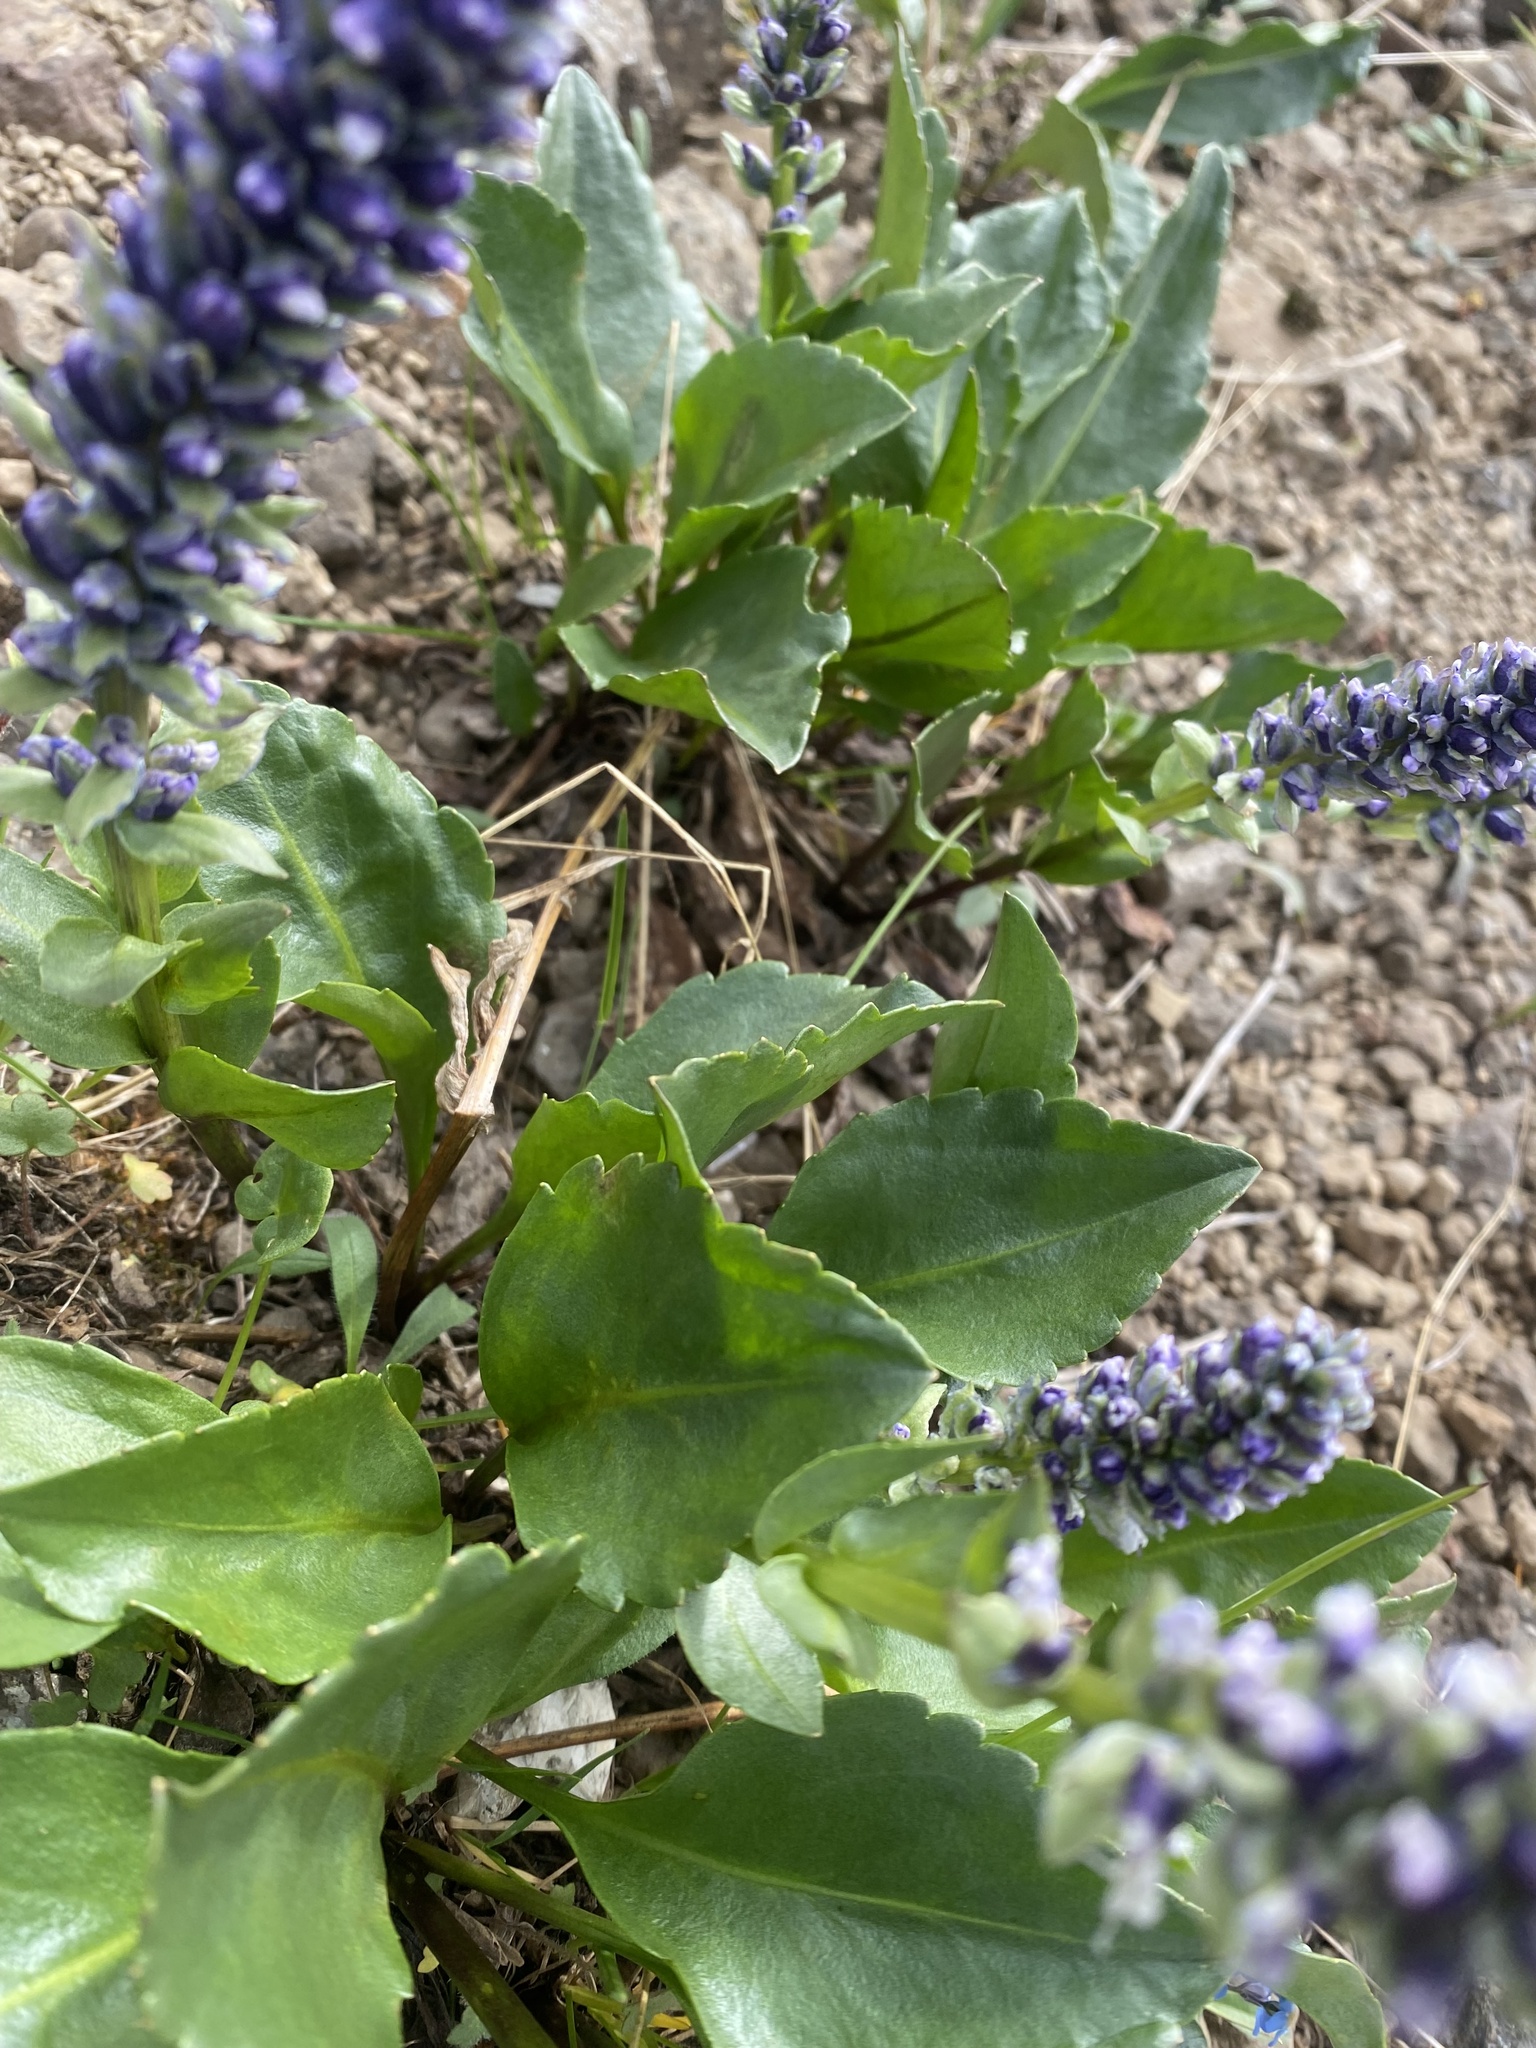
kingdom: Plantae
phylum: Tracheophyta
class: Magnoliopsida
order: Lamiales
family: Plantaginaceae
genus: Lagotis
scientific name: Lagotis glauca
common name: Glaucous weaselsnout
